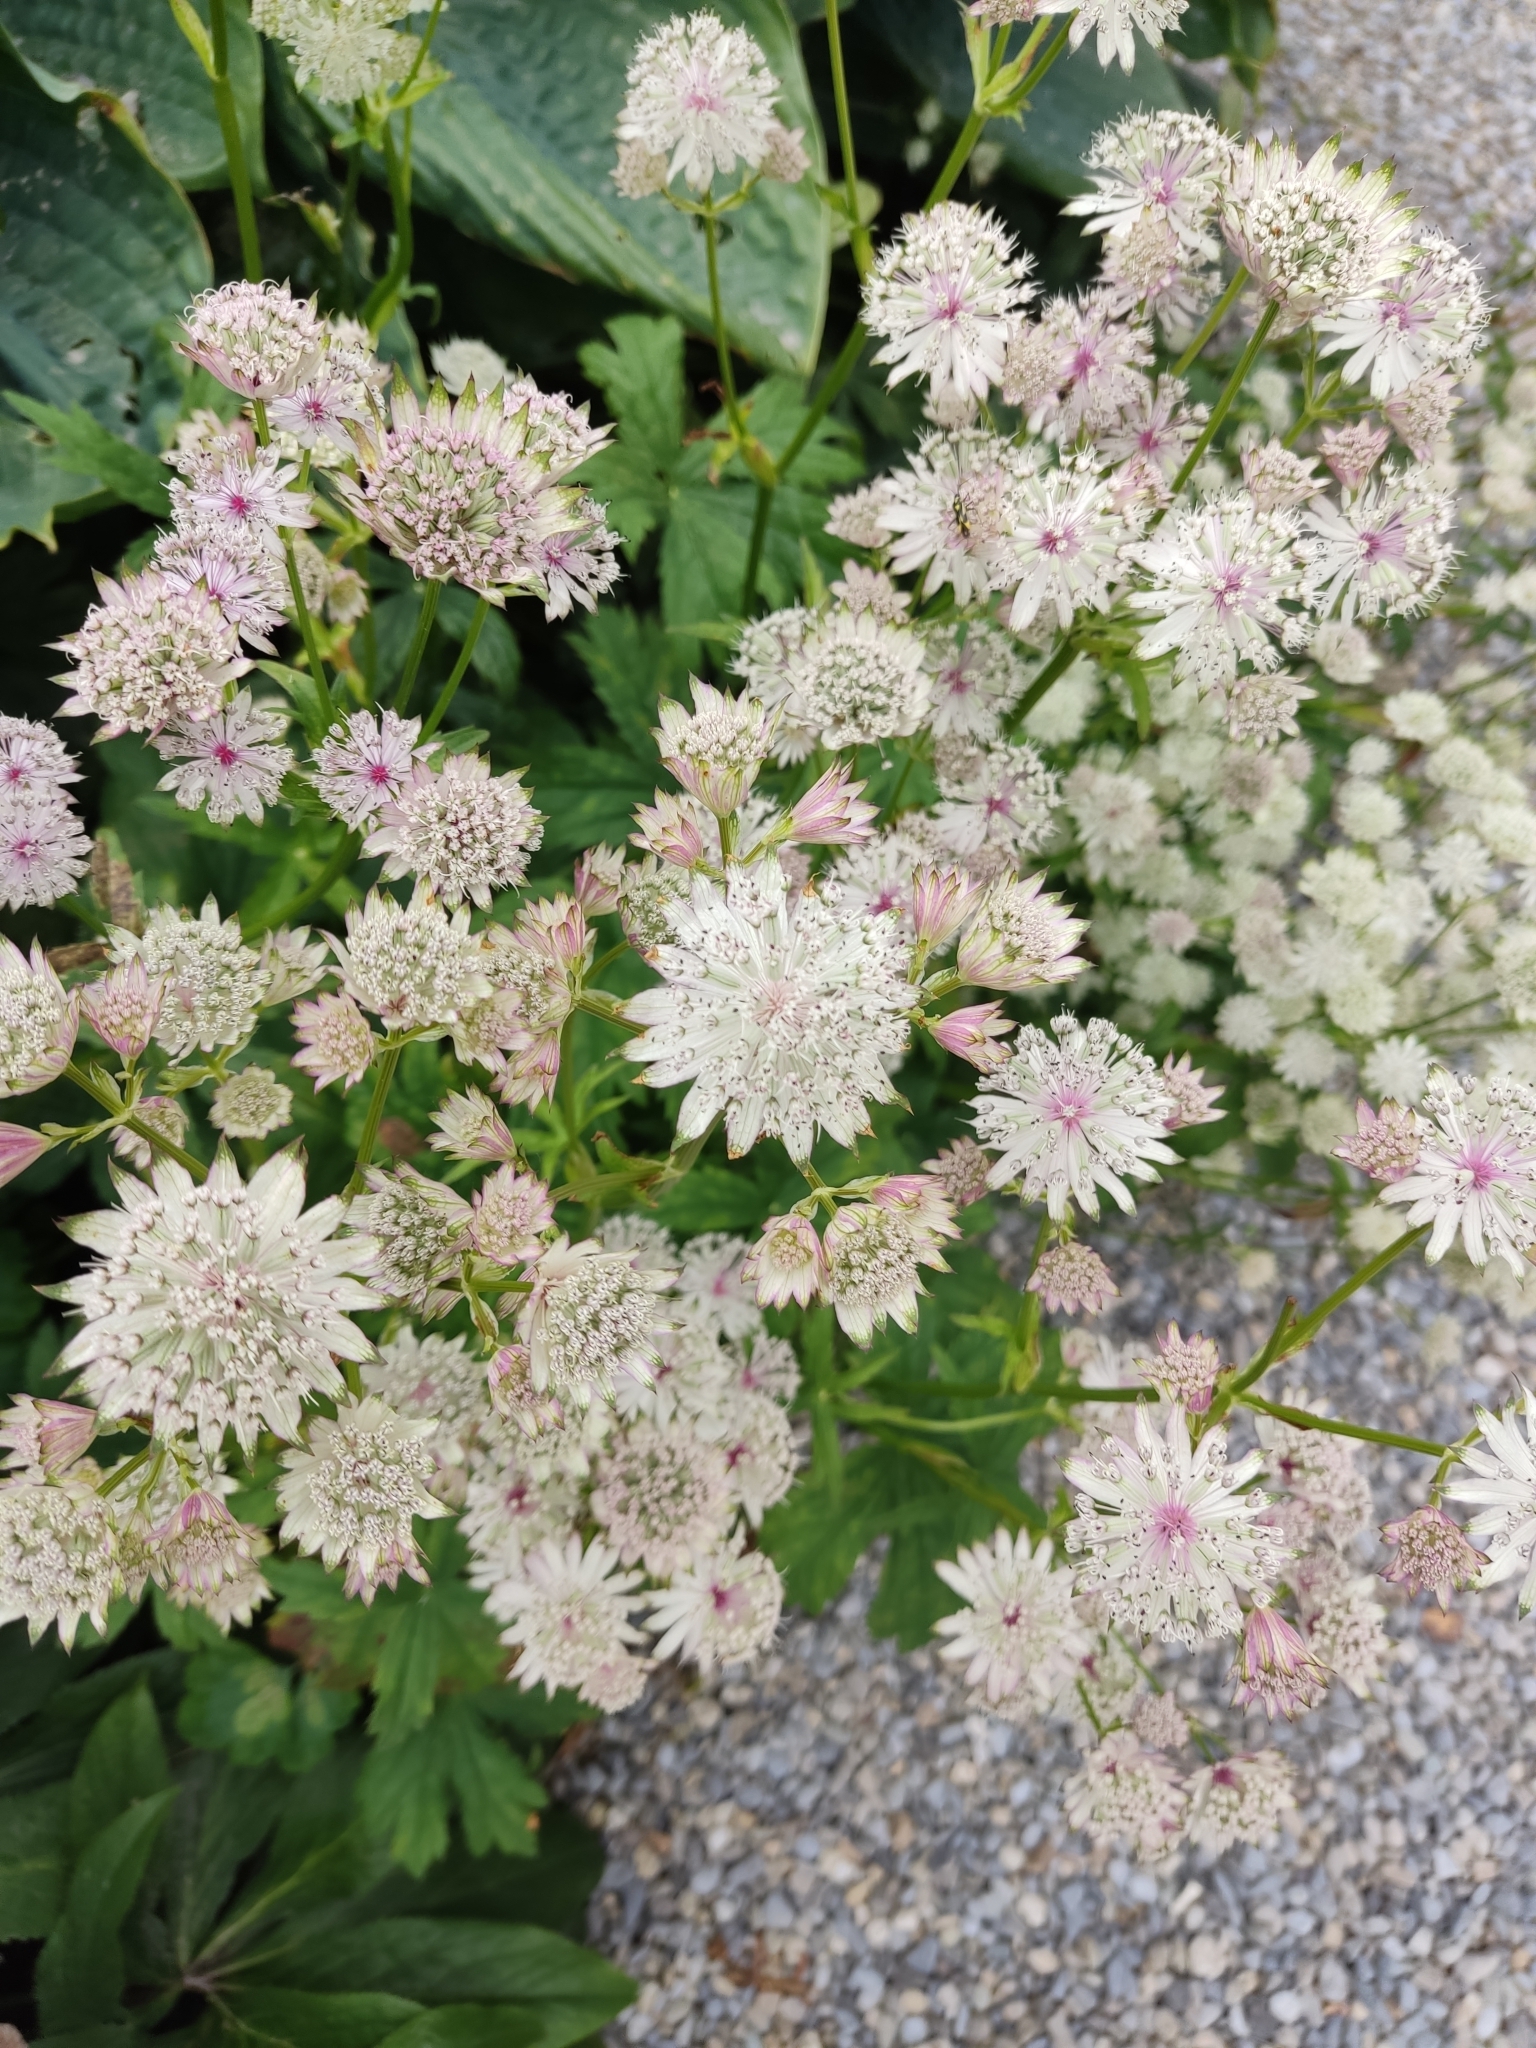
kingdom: Plantae
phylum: Tracheophyta
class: Magnoliopsida
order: Apiales
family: Apiaceae
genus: Astrantia
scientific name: Astrantia major
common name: Greater masterwort
